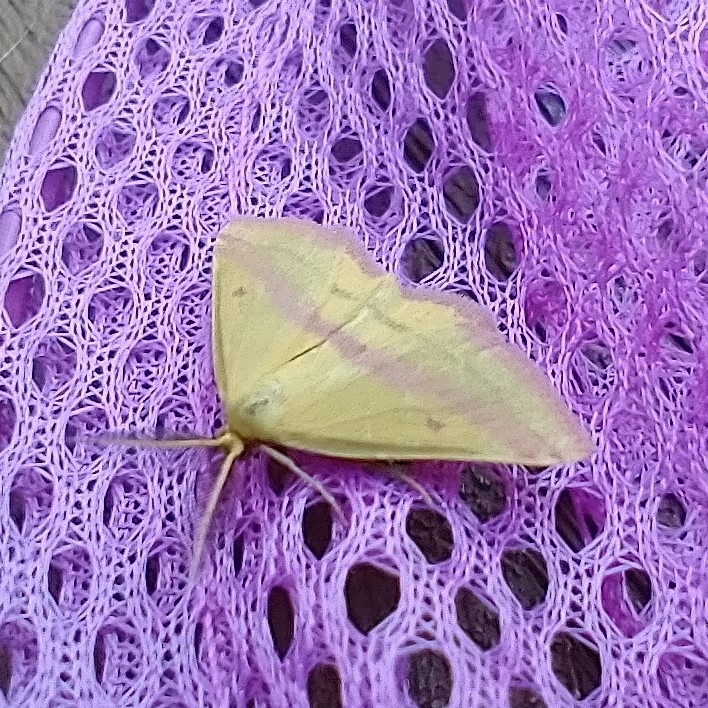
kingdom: Animalia
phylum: Arthropoda
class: Insecta
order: Lepidoptera
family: Geometridae
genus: Haematopis
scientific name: Haematopis grataria
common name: Chickweed geometer
